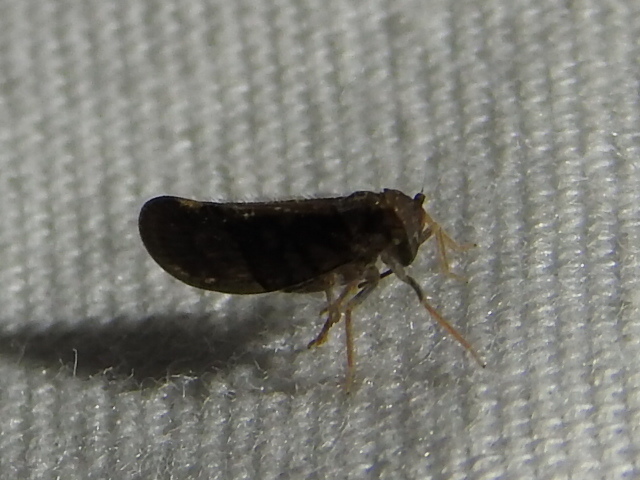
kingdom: Animalia
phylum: Arthropoda
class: Insecta
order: Hemiptera
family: Cixiidae
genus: Pintalia
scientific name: Pintalia vibex
